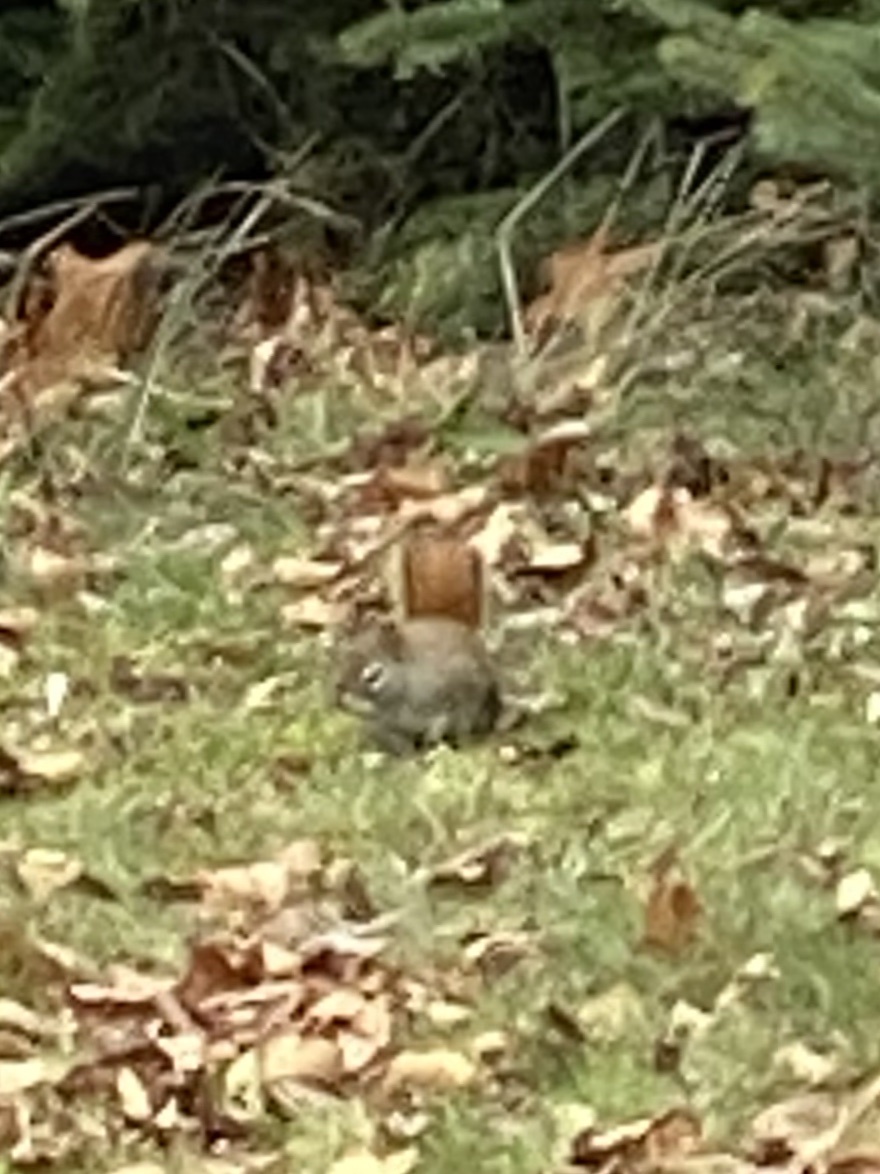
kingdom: Animalia
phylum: Chordata
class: Mammalia
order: Rodentia
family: Sciuridae
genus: Tamiasciurus
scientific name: Tamiasciurus hudsonicus
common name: Red squirrel
